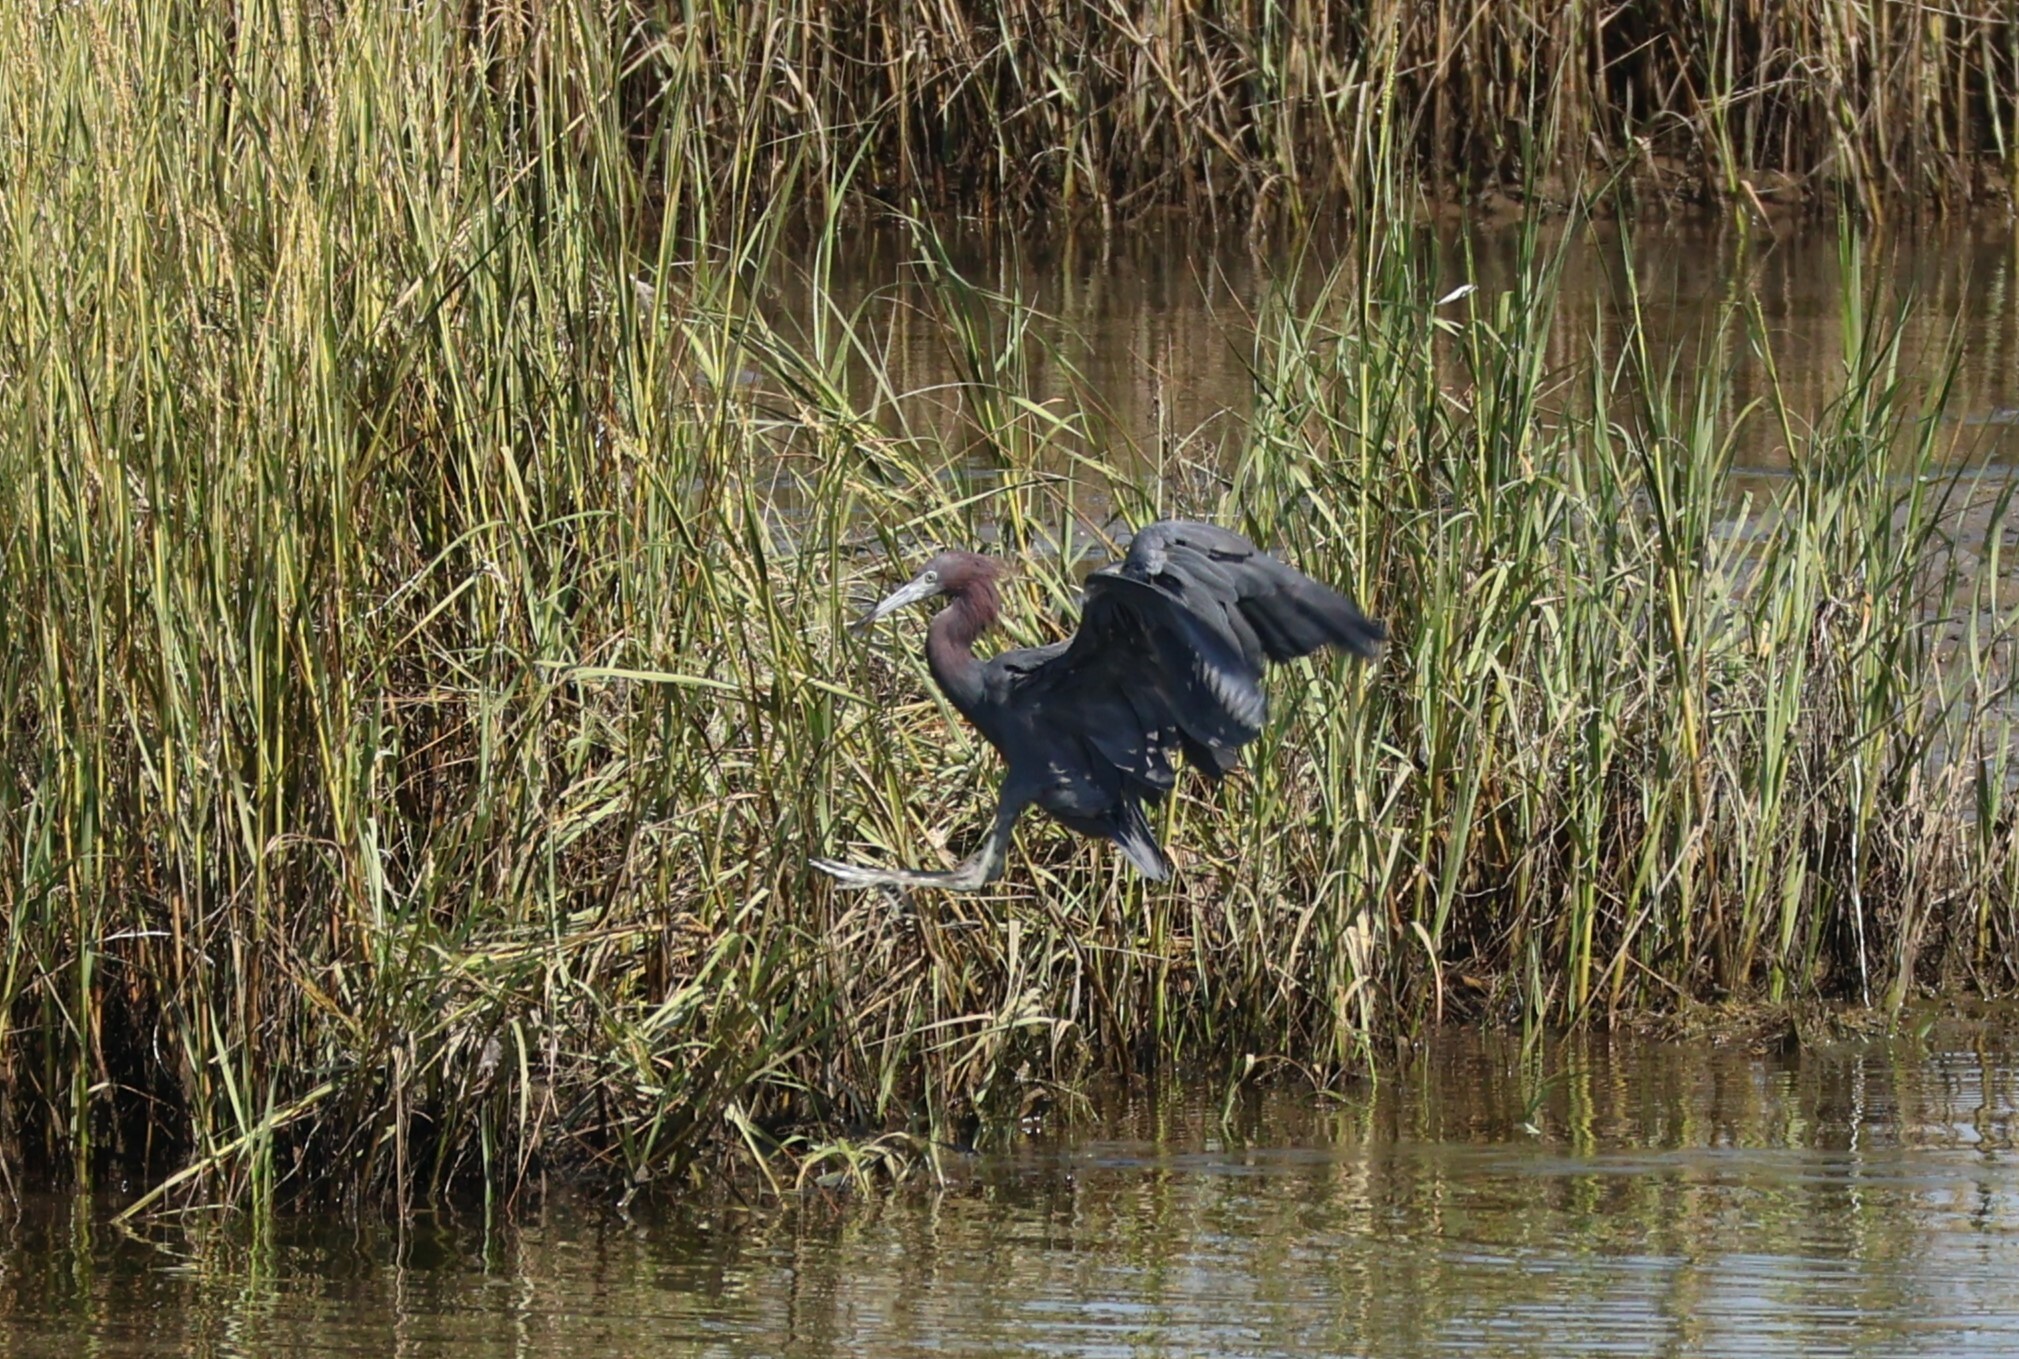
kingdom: Animalia
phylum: Chordata
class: Aves
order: Pelecaniformes
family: Ardeidae
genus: Egretta
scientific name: Egretta caerulea
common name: Little blue heron
